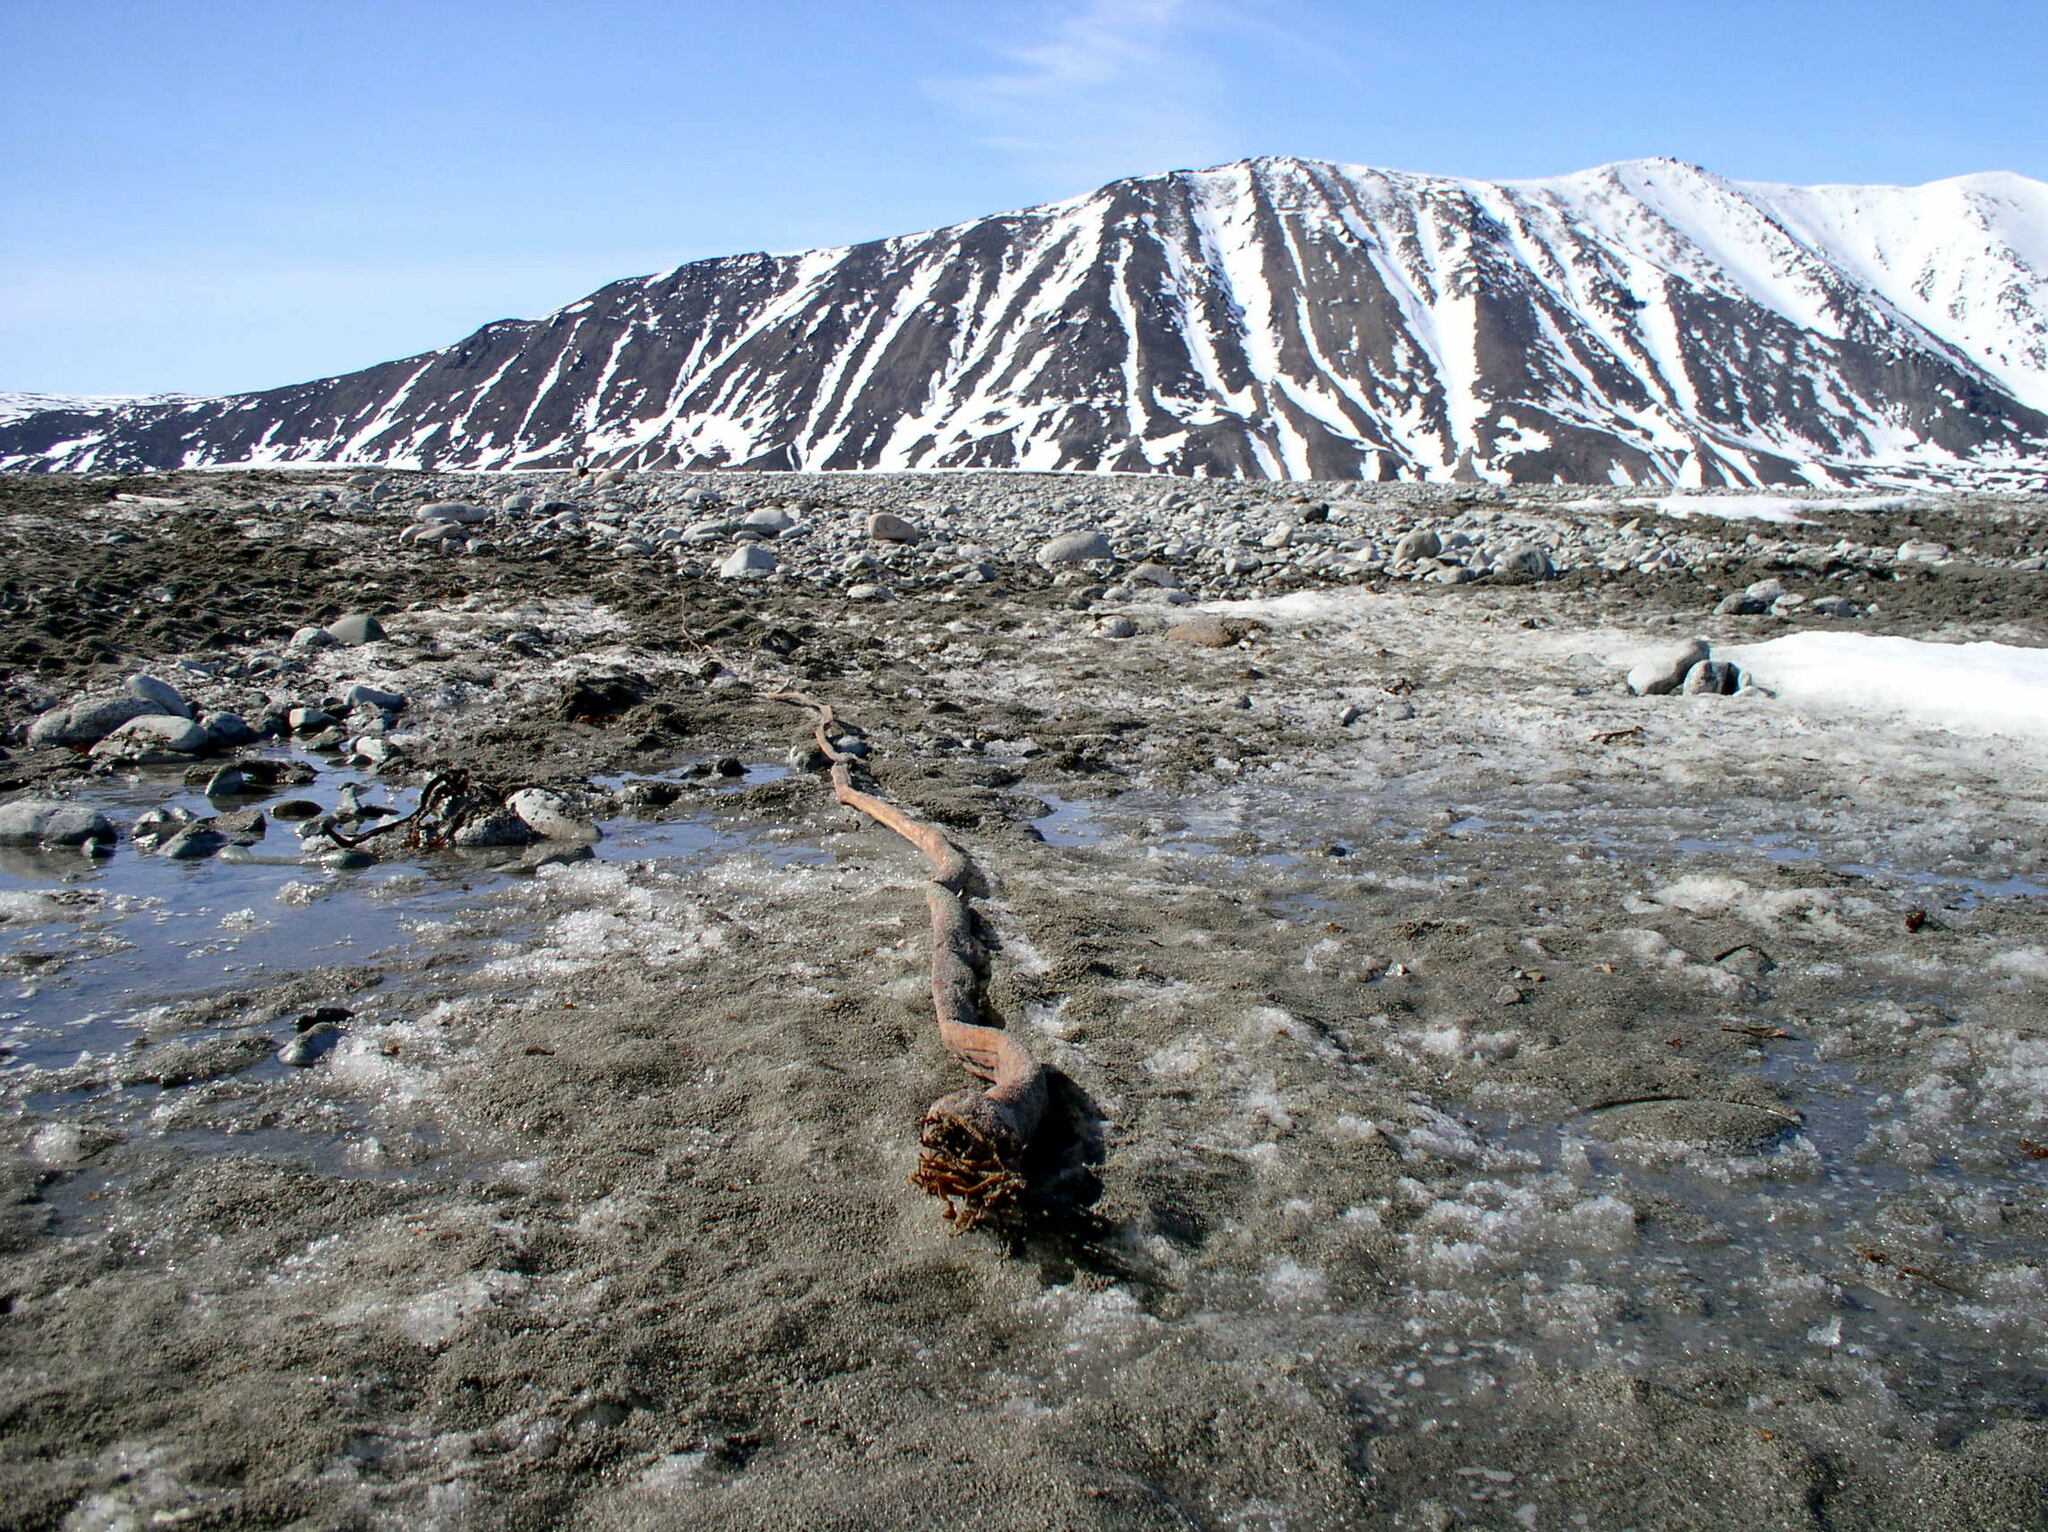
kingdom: Chromista
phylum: Ochrophyta
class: Phaeophyceae
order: Laminariales
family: Laminariaceae
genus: Nereocystis
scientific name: Nereocystis luetkeana
